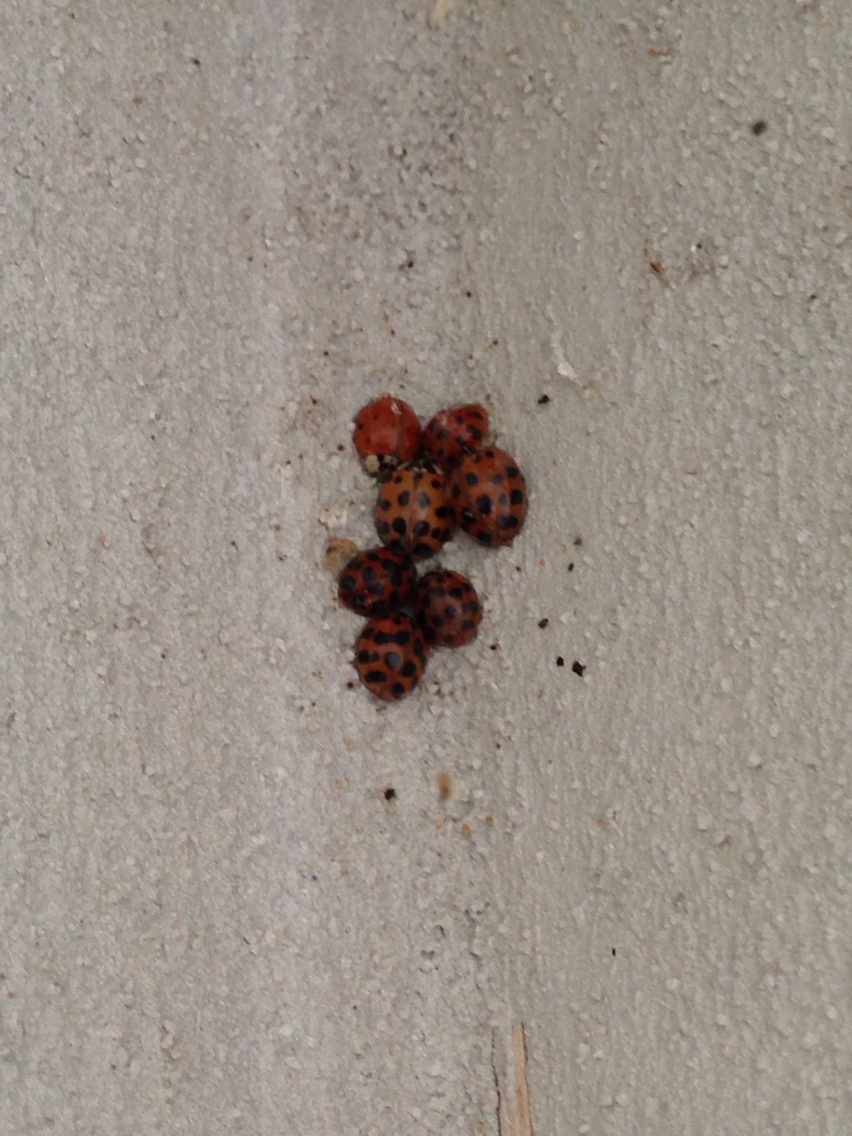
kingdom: Animalia
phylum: Arthropoda
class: Insecta
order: Coleoptera
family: Coccinellidae
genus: Harmonia
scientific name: Harmonia axyridis
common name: Harlequin ladybird
